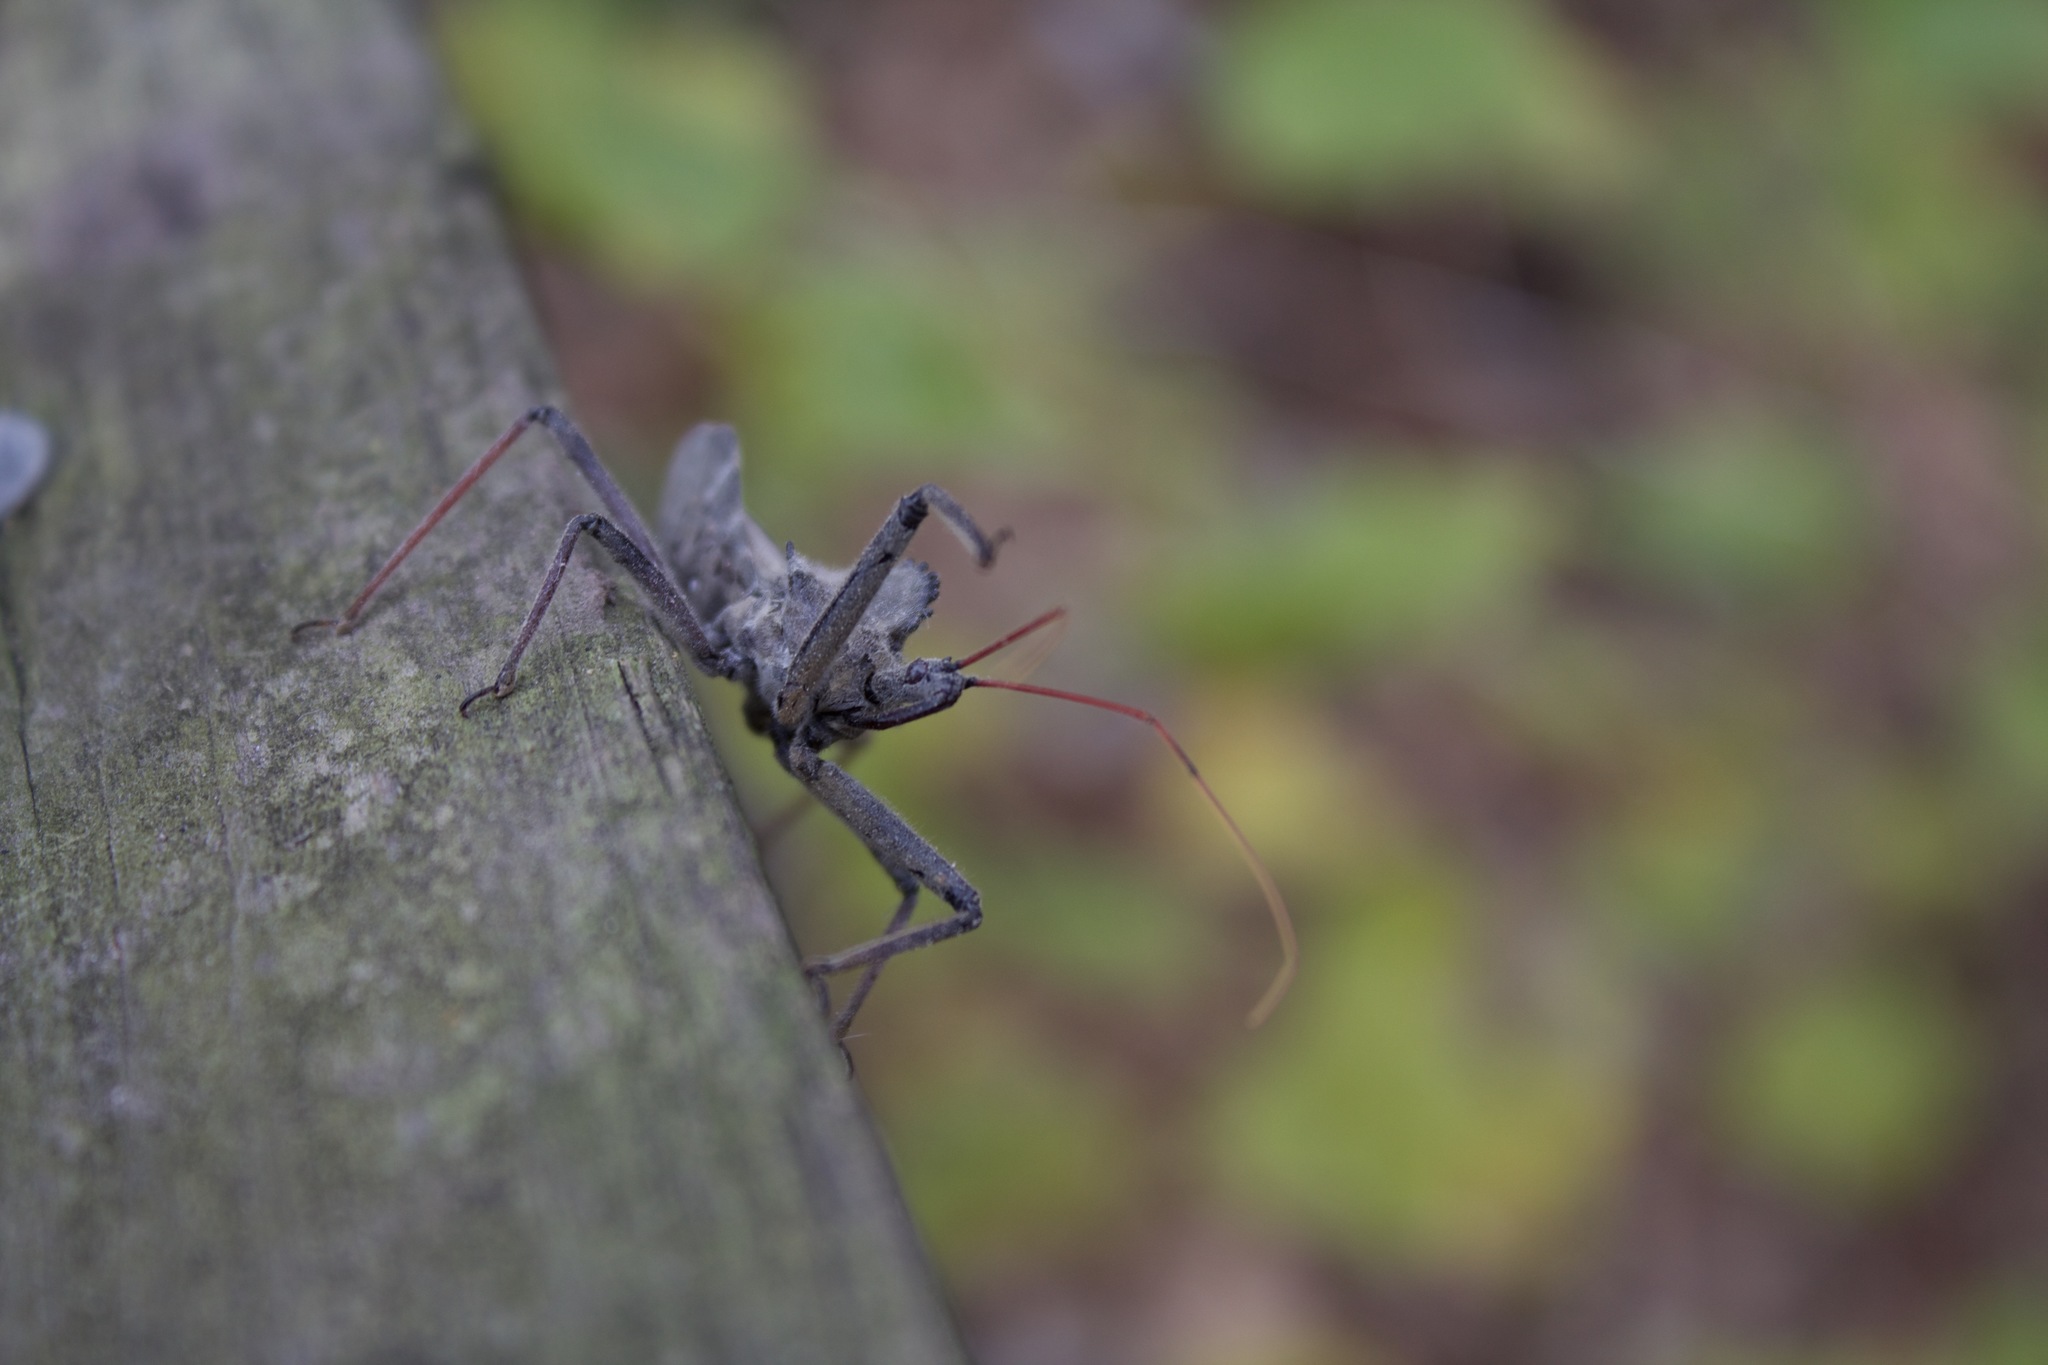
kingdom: Animalia
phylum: Arthropoda
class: Insecta
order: Hemiptera
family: Reduviidae
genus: Arilus
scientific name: Arilus cristatus
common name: North american wheel bug
